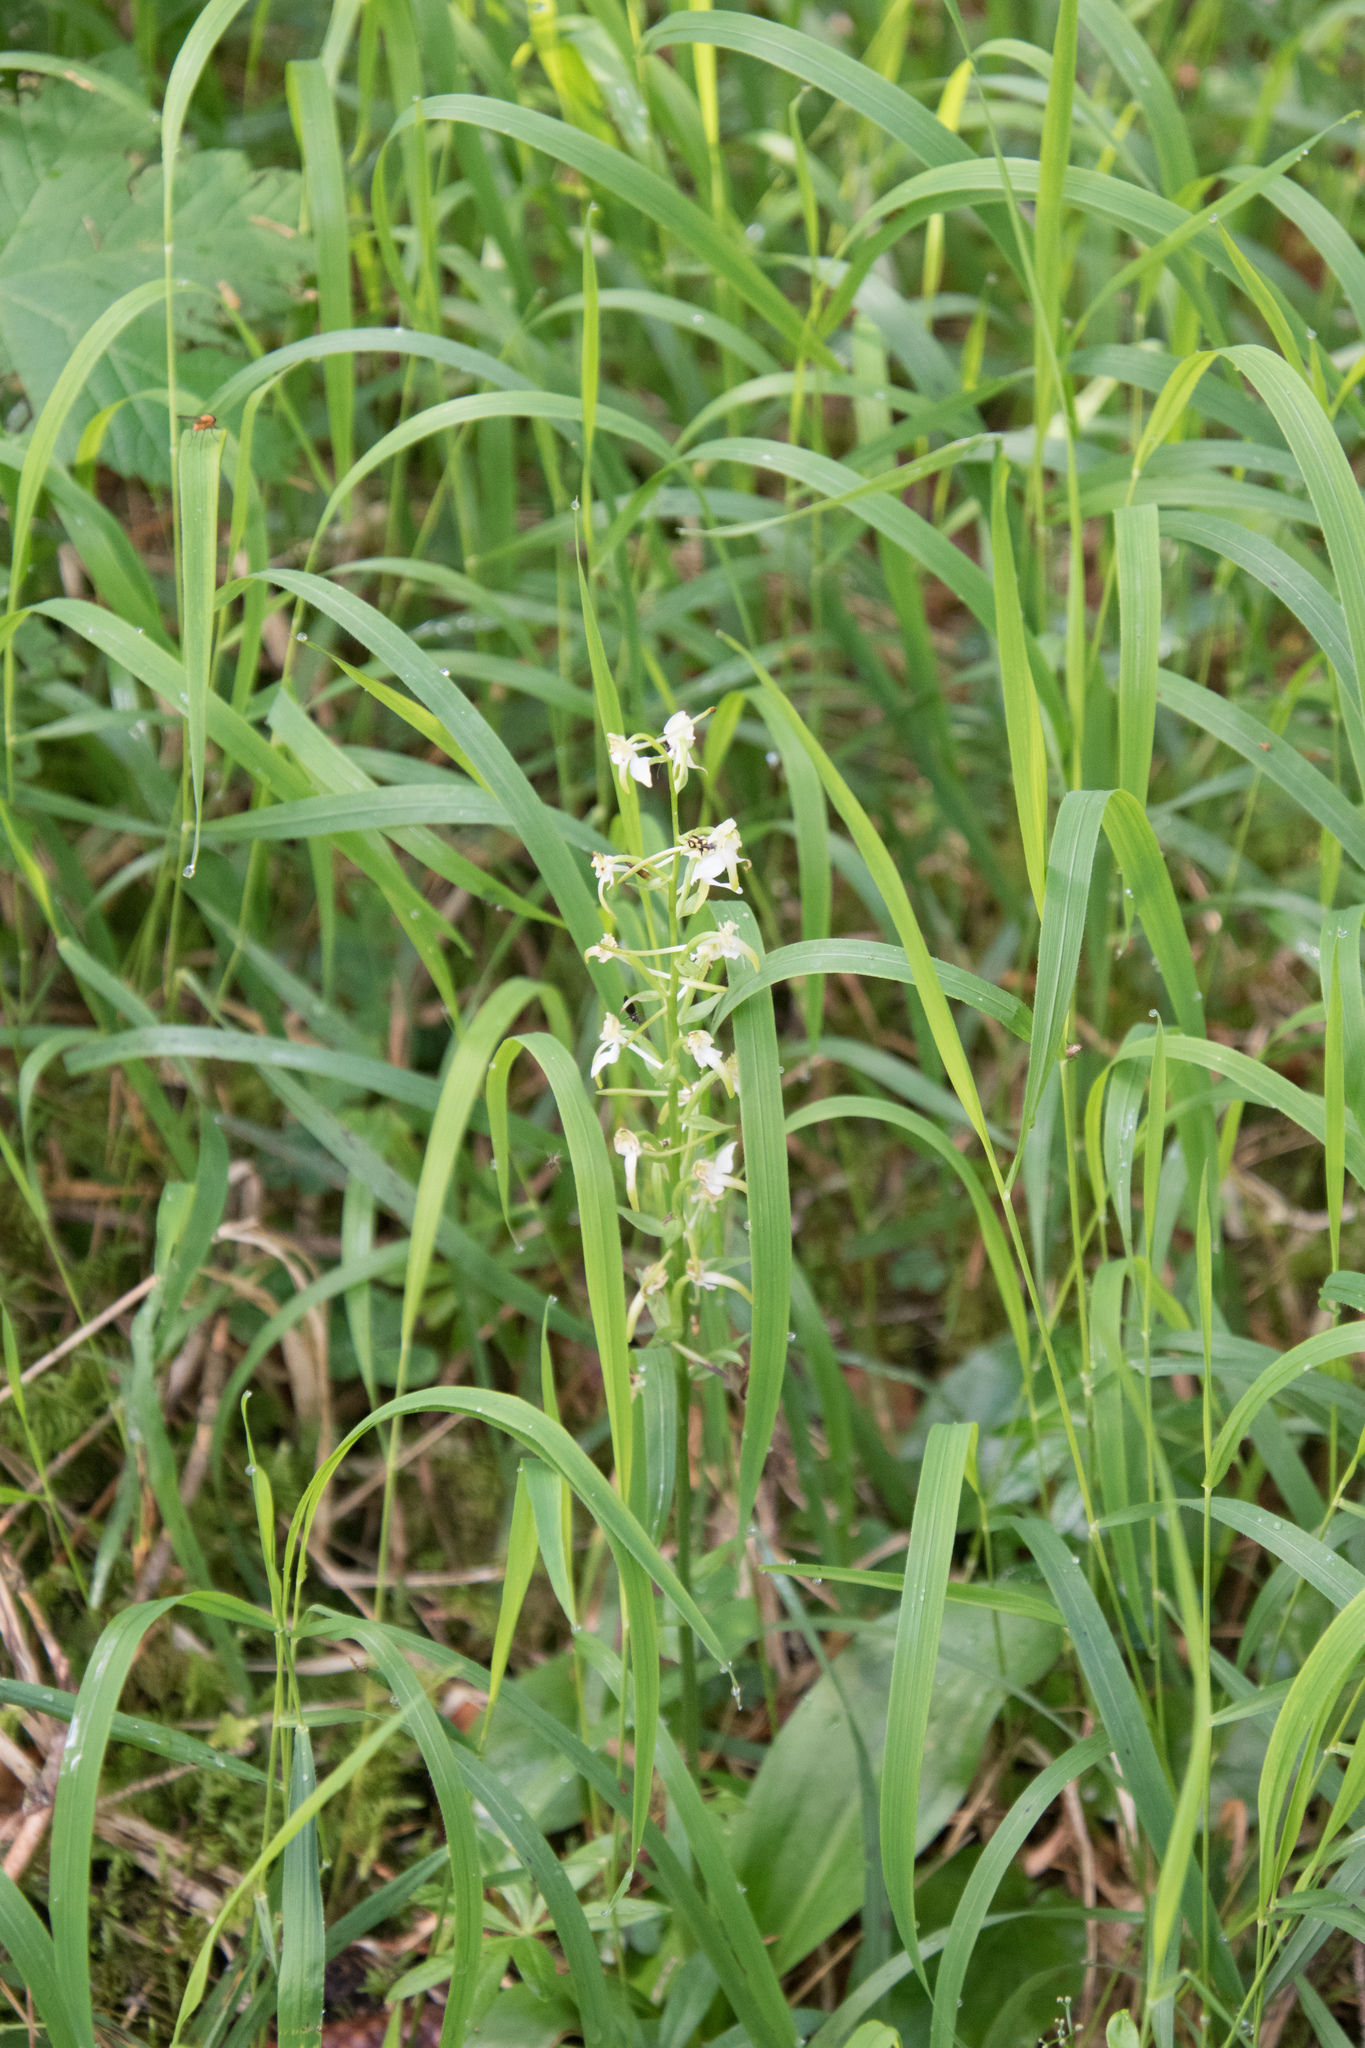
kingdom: Plantae
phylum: Tracheophyta
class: Liliopsida
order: Asparagales
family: Orchidaceae
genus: Platanthera
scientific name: Platanthera chlorantha
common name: Greater butterfly-orchid
